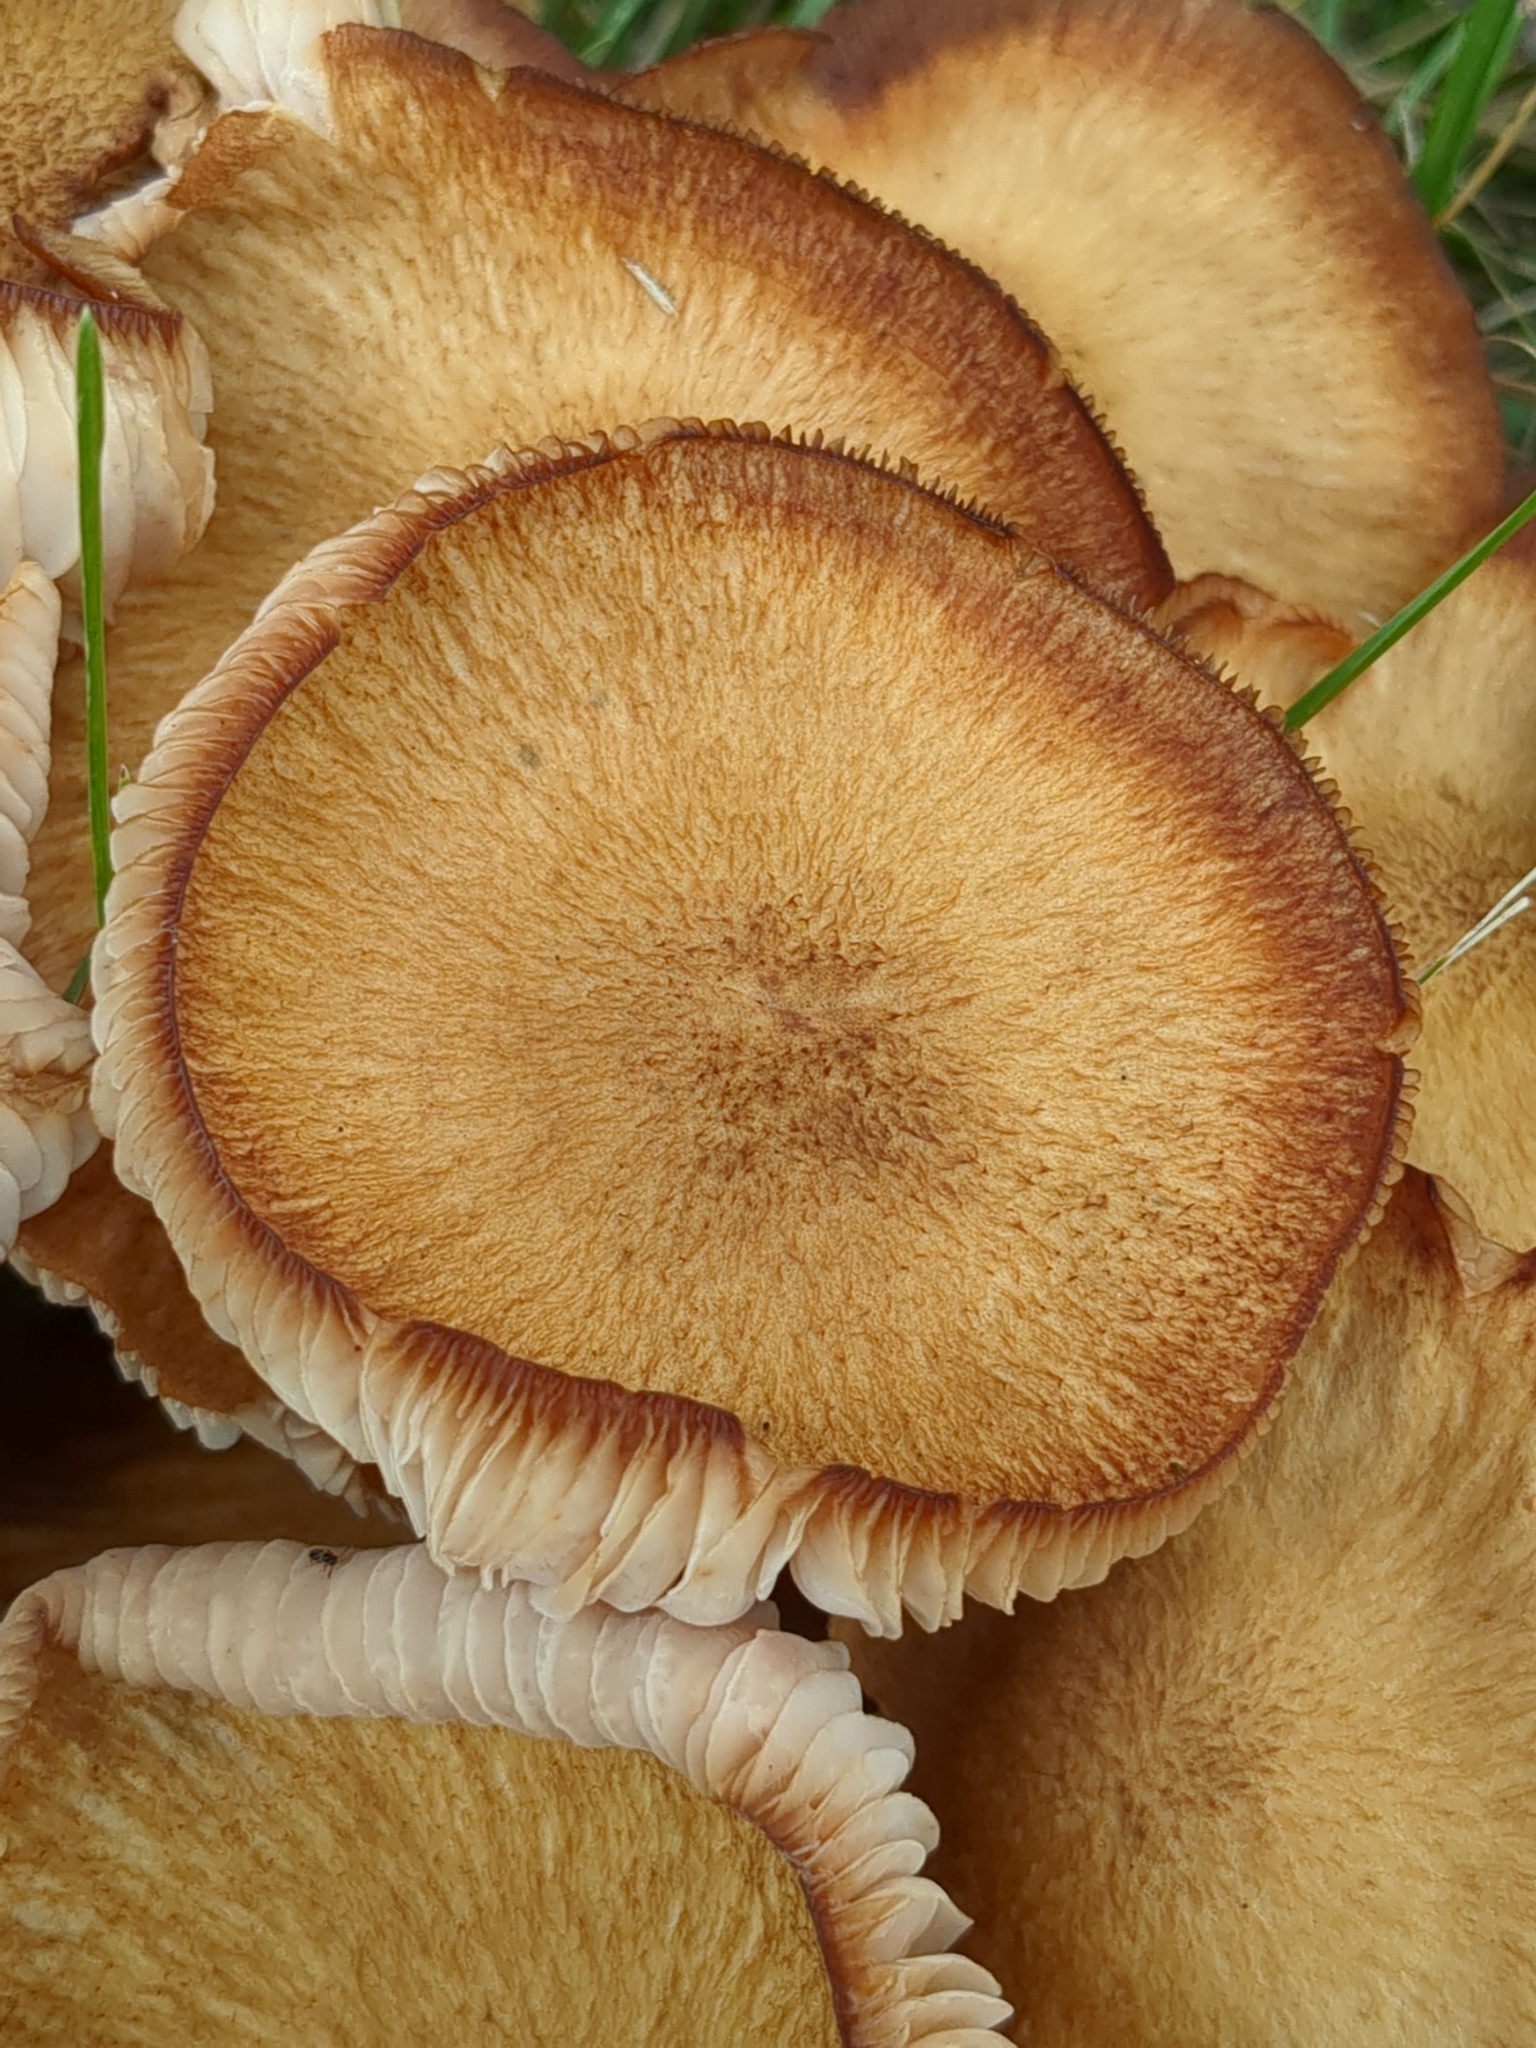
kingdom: Fungi
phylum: Basidiomycota
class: Agaricomycetes
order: Agaricales
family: Physalacriaceae
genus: Desarmillaria
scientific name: Desarmillaria caespitosa
